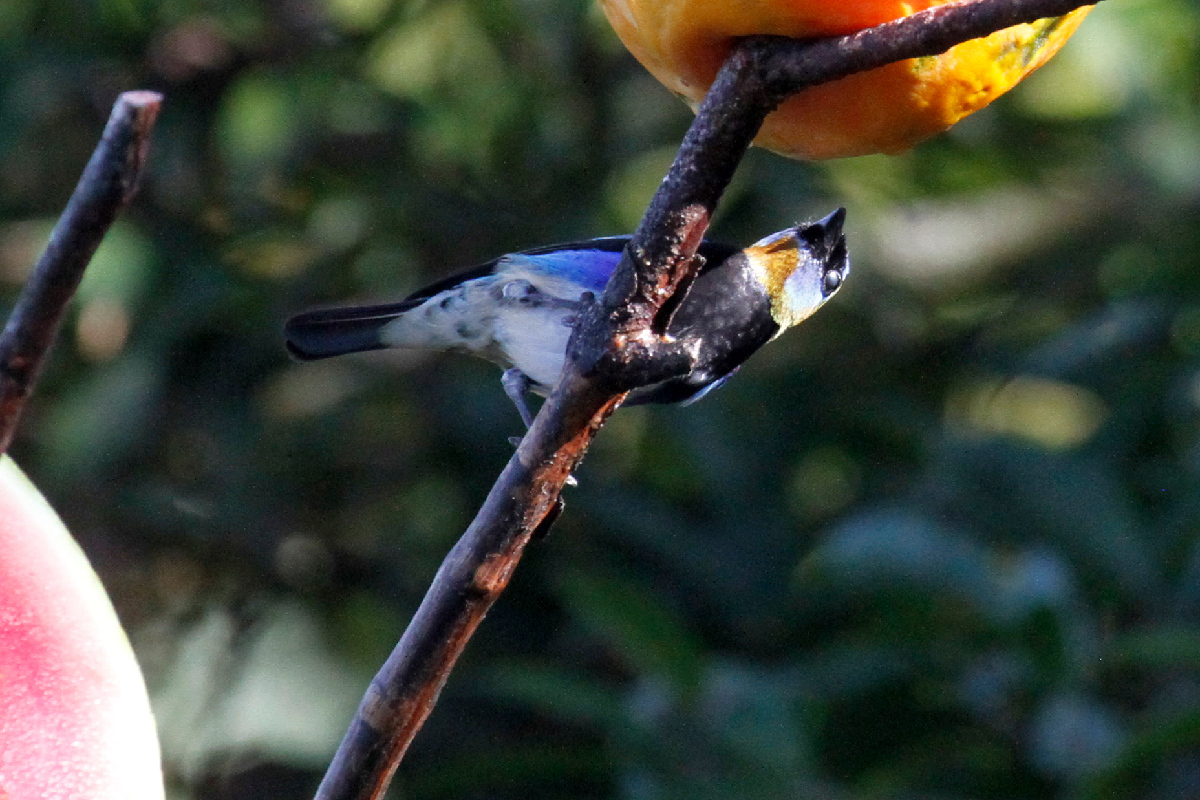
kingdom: Animalia
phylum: Chordata
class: Aves
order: Passeriformes
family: Thraupidae
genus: Stilpnia
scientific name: Stilpnia larvata
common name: Golden-hooded tanager
